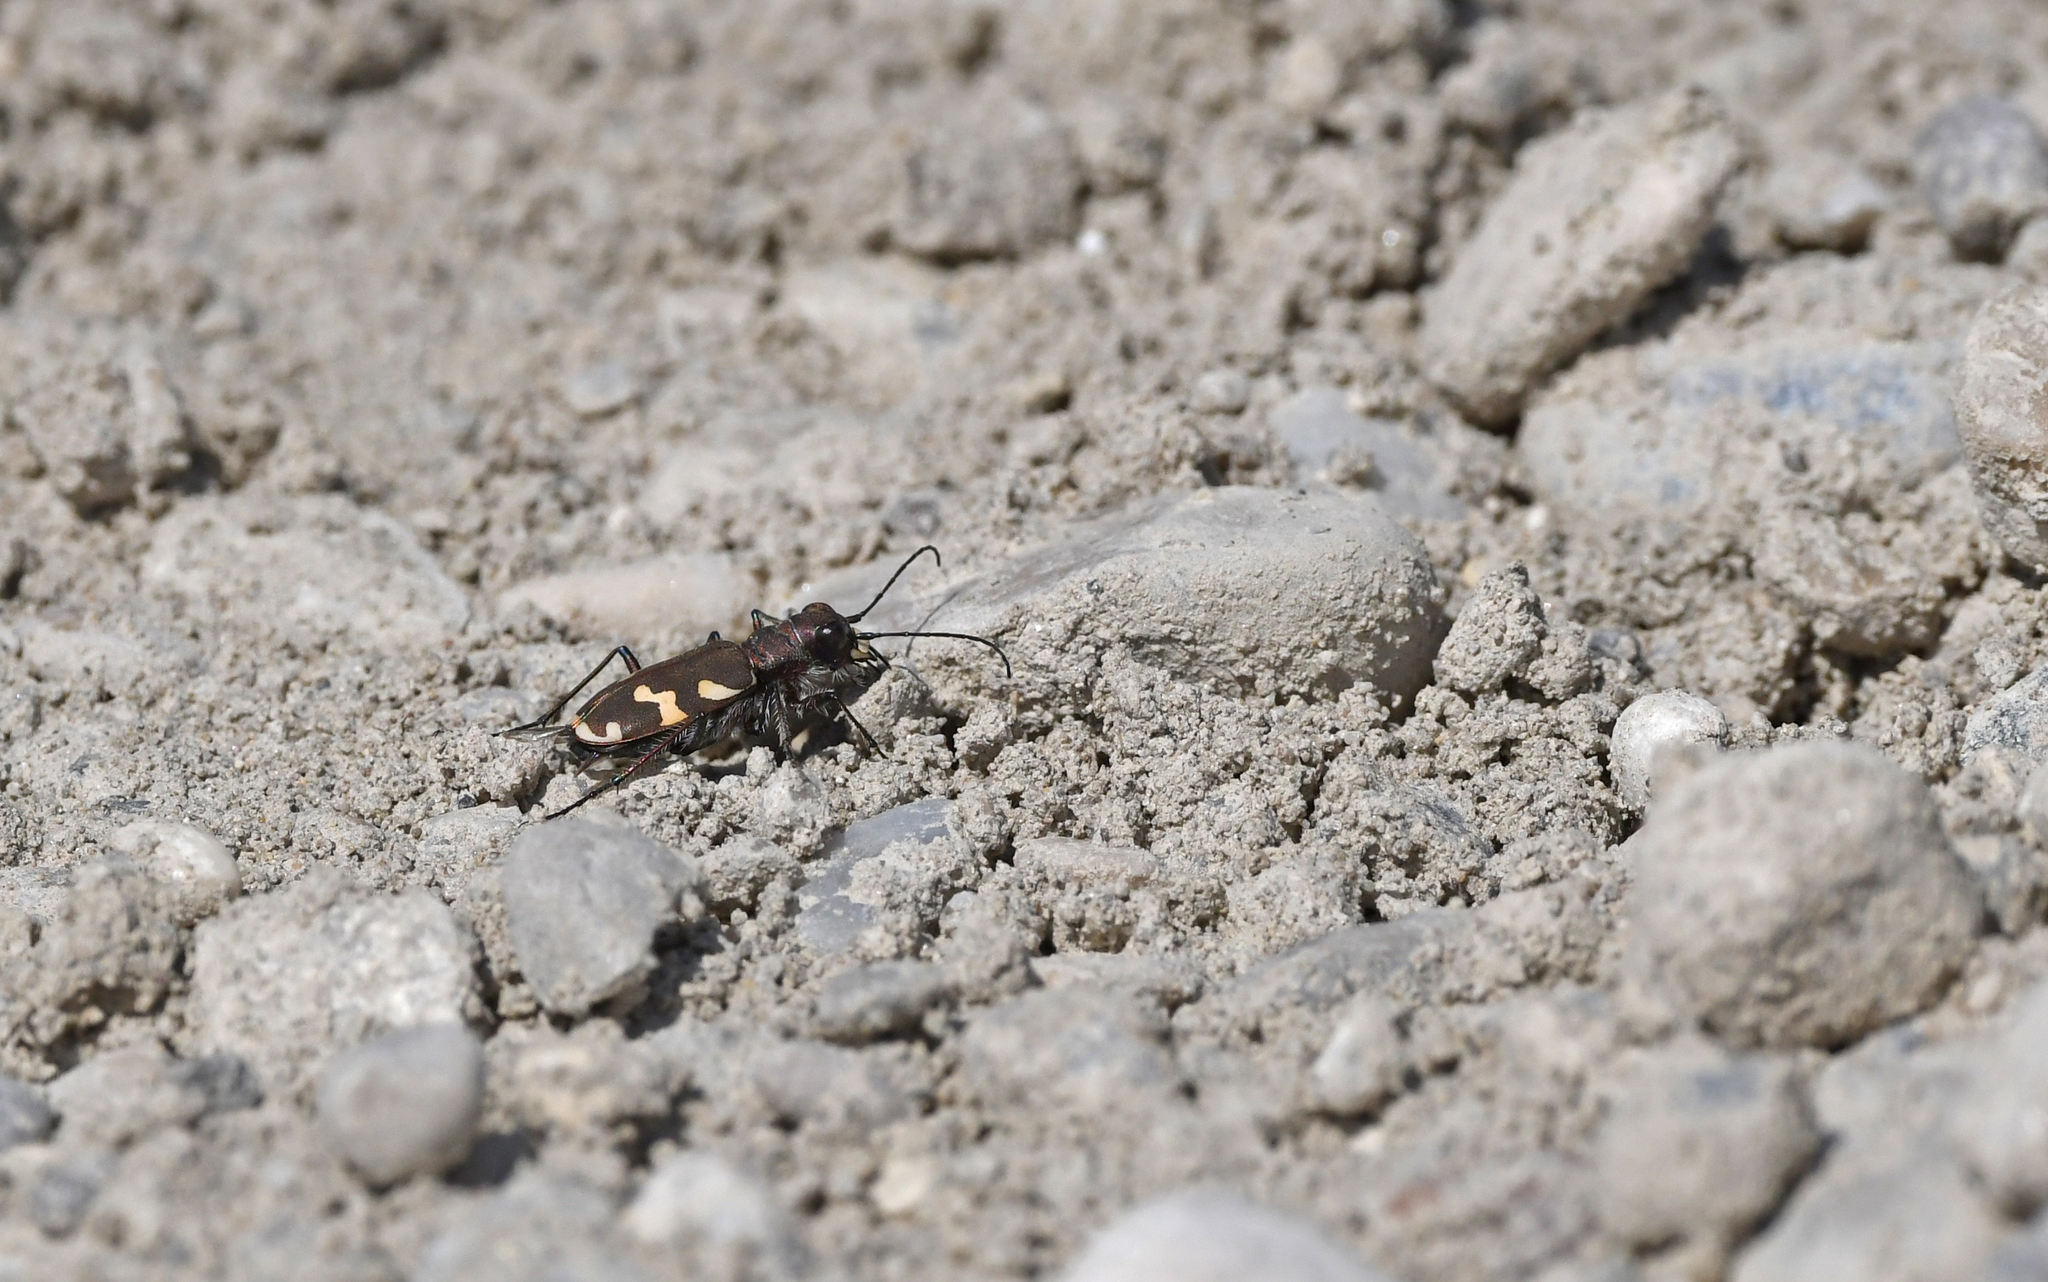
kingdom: Animalia
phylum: Arthropoda
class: Insecta
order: Coleoptera
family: Carabidae
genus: Cicindela
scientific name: Cicindela hybrida
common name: Northern dune tiger beetle
